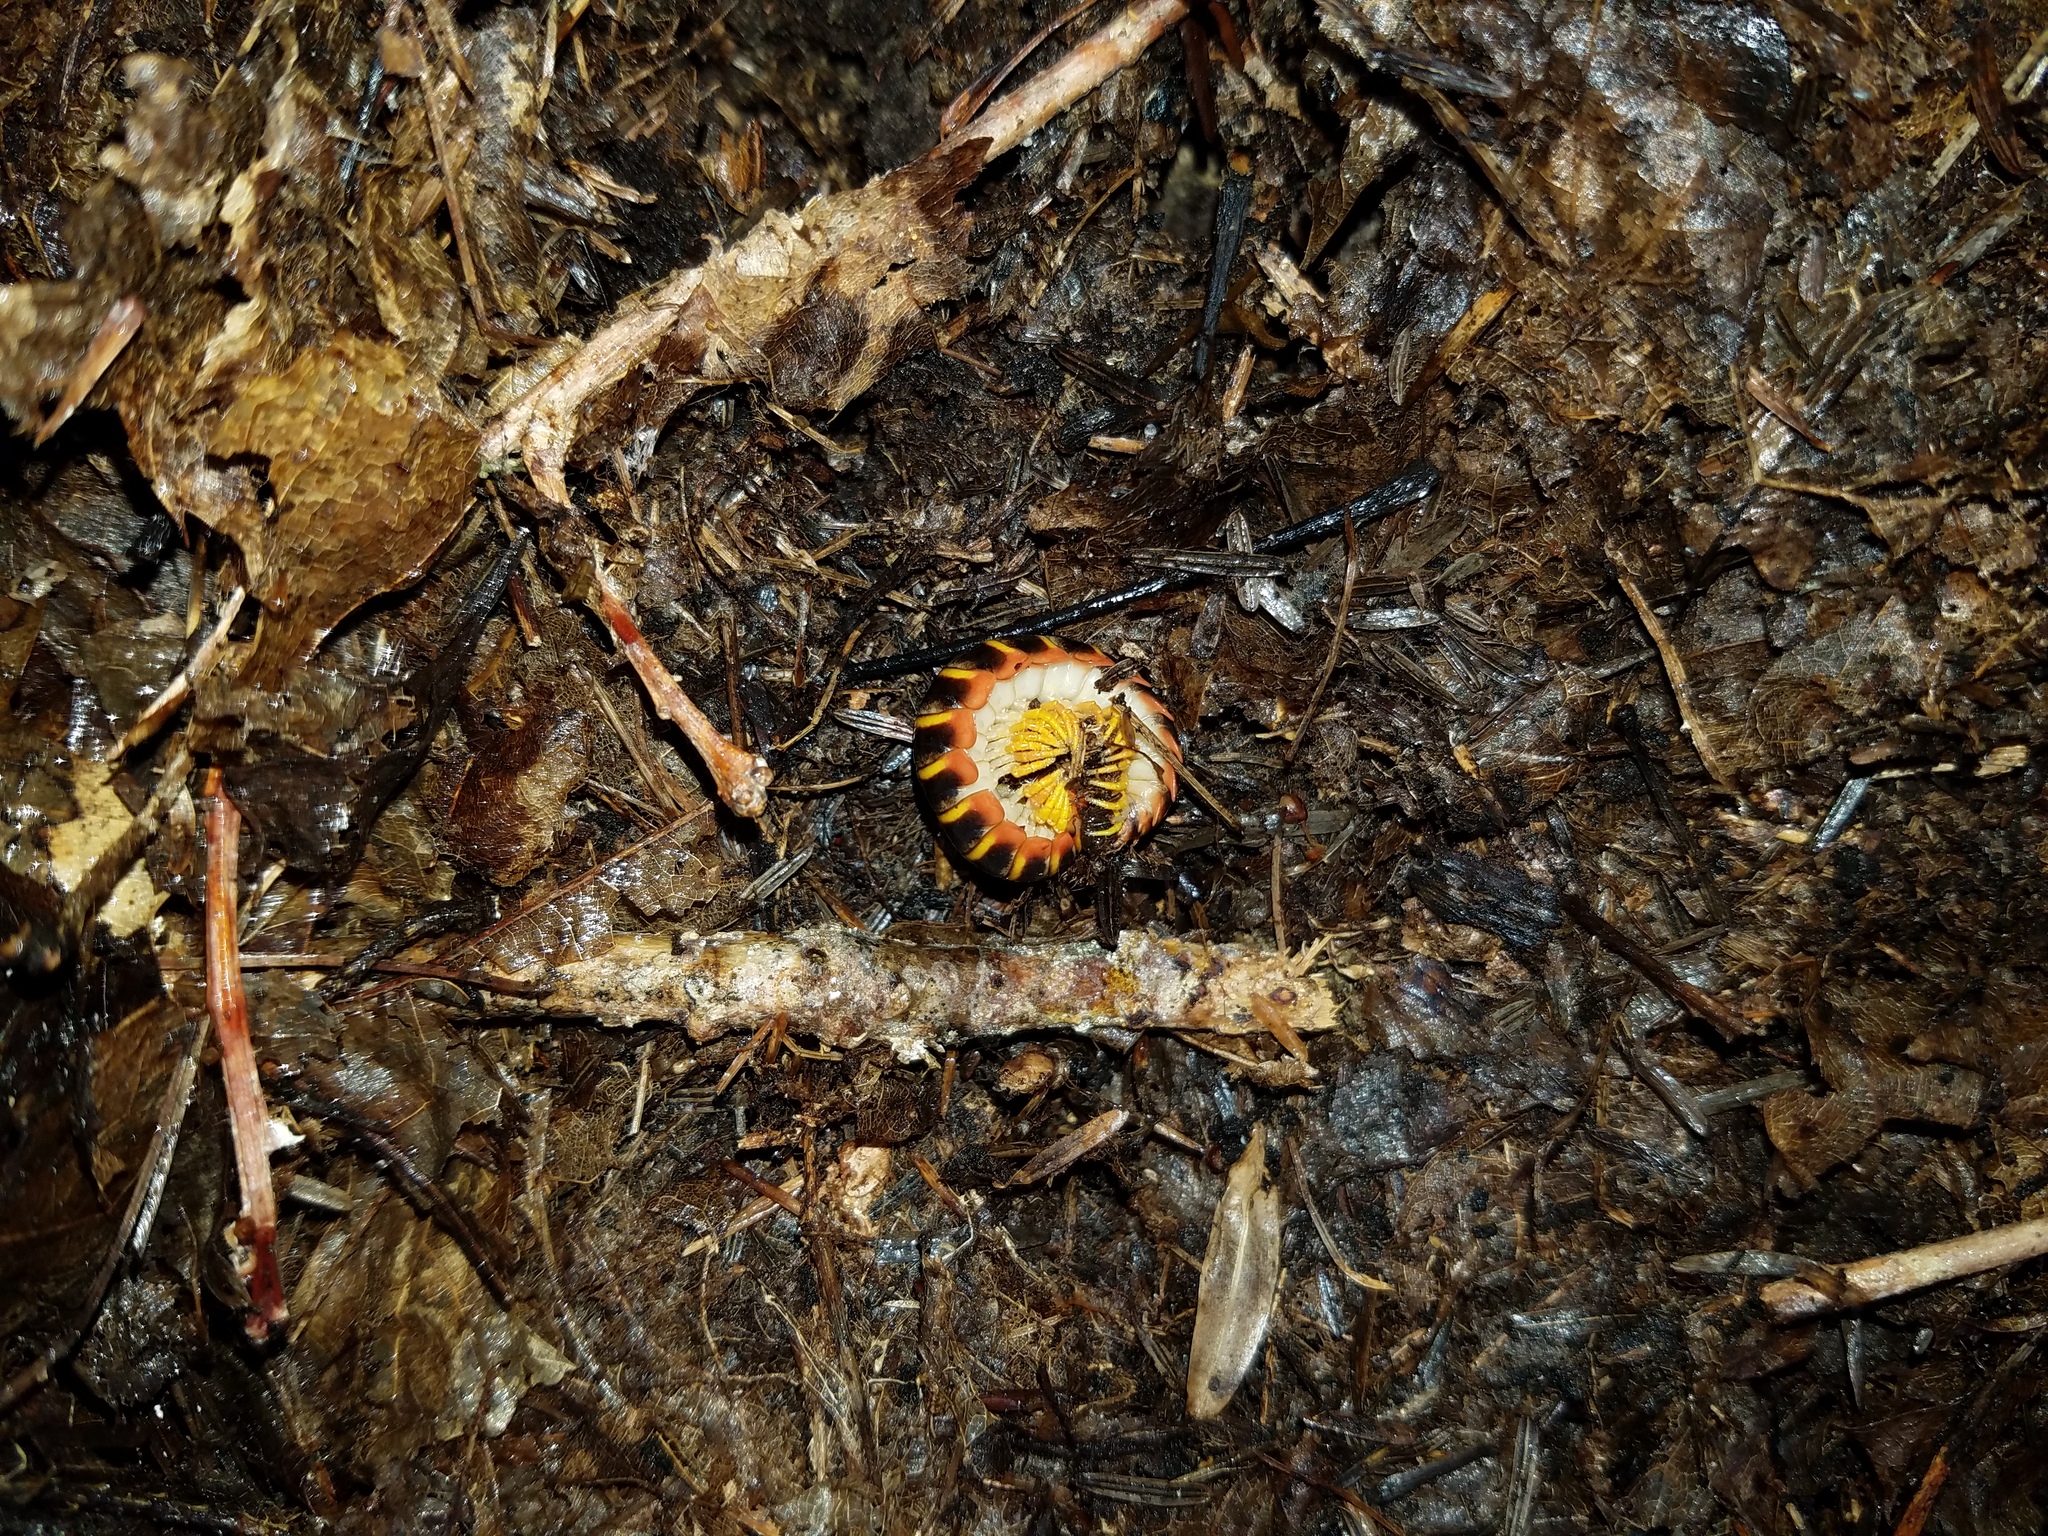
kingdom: Animalia
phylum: Arthropoda
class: Diplopoda
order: Polydesmida
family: Xystodesmidae
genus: Apheloria
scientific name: Apheloria virginiensis
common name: Black-and-gold flat millipede
